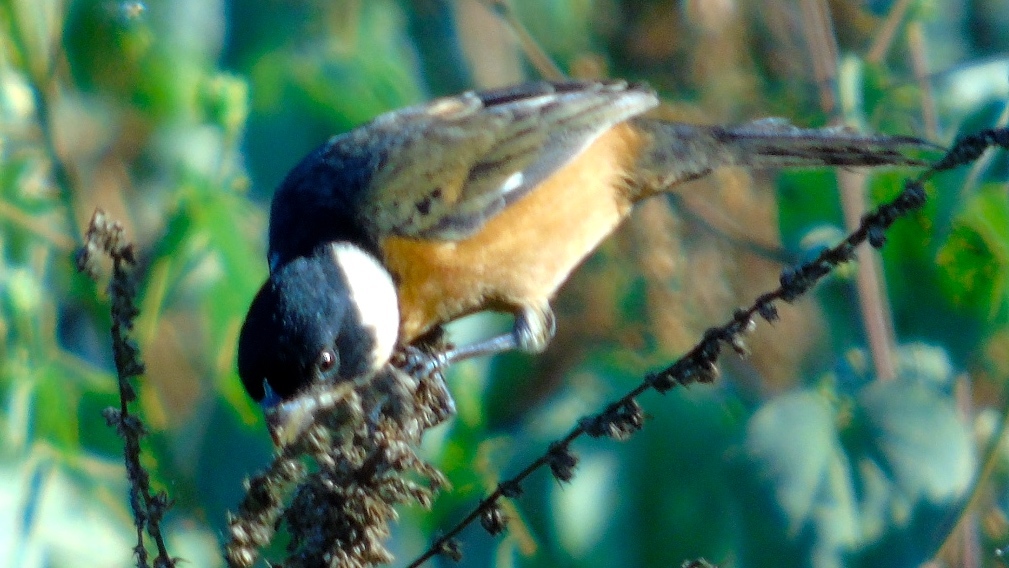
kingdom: Animalia
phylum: Chordata
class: Aves
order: Passeriformes
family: Thraupidae
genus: Sporophila
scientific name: Sporophila torqueola
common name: White-collared seedeater
